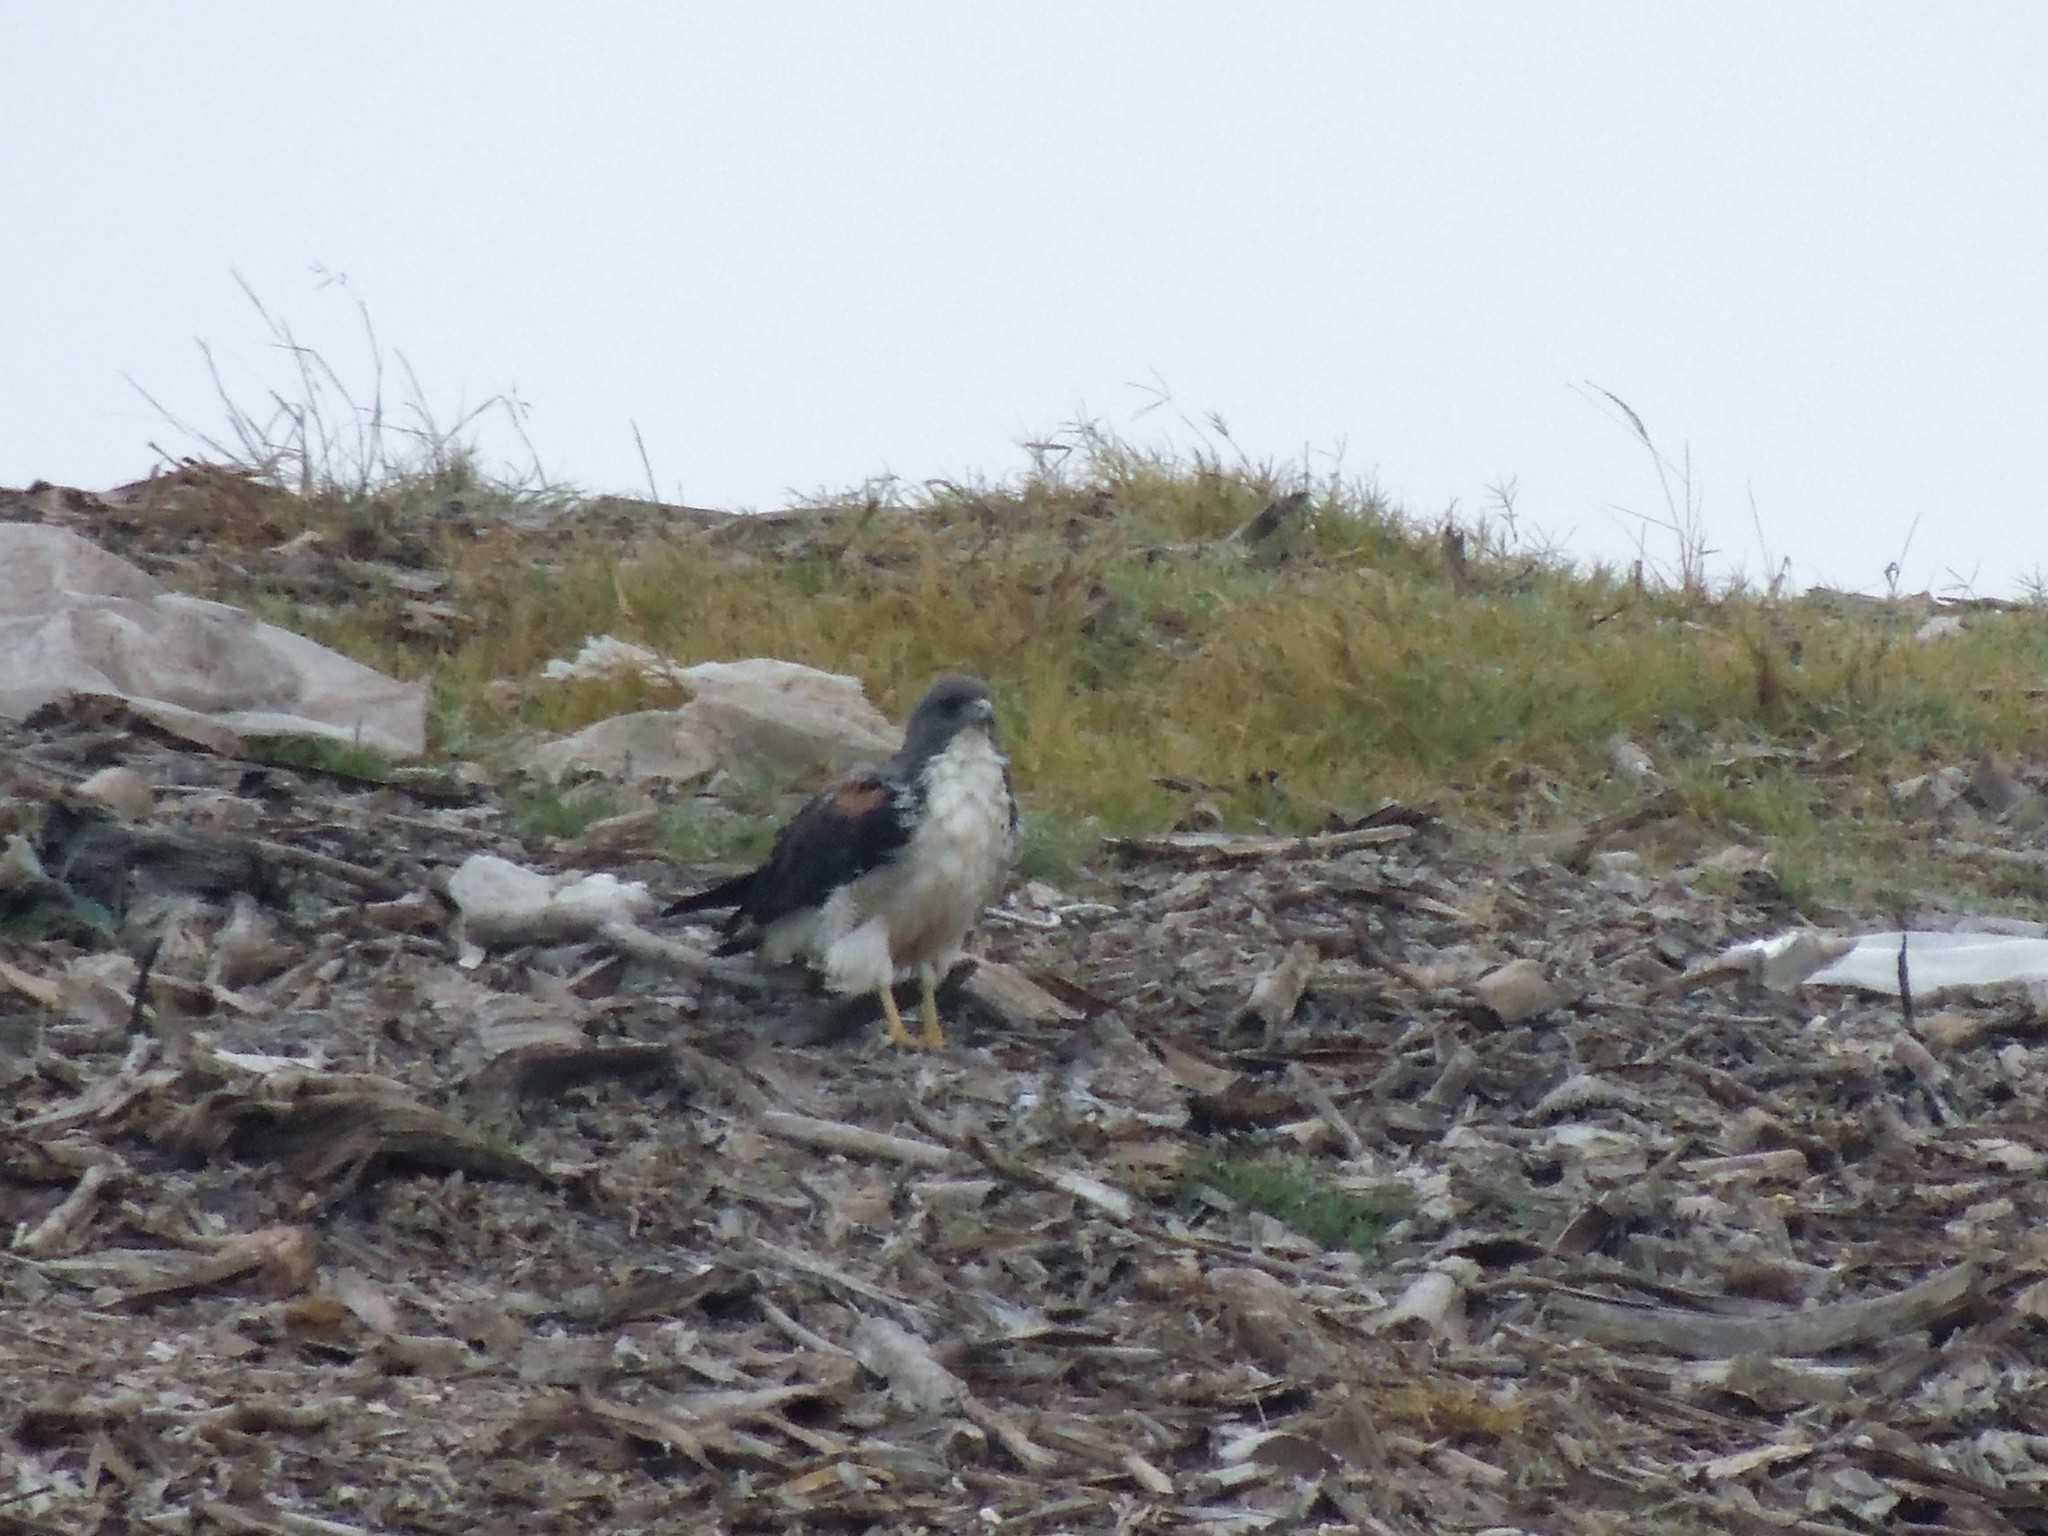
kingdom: Animalia
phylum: Chordata
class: Aves
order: Accipitriformes
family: Accipitridae
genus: Buteo
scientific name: Buteo albicaudatus
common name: White-tailed hawk
